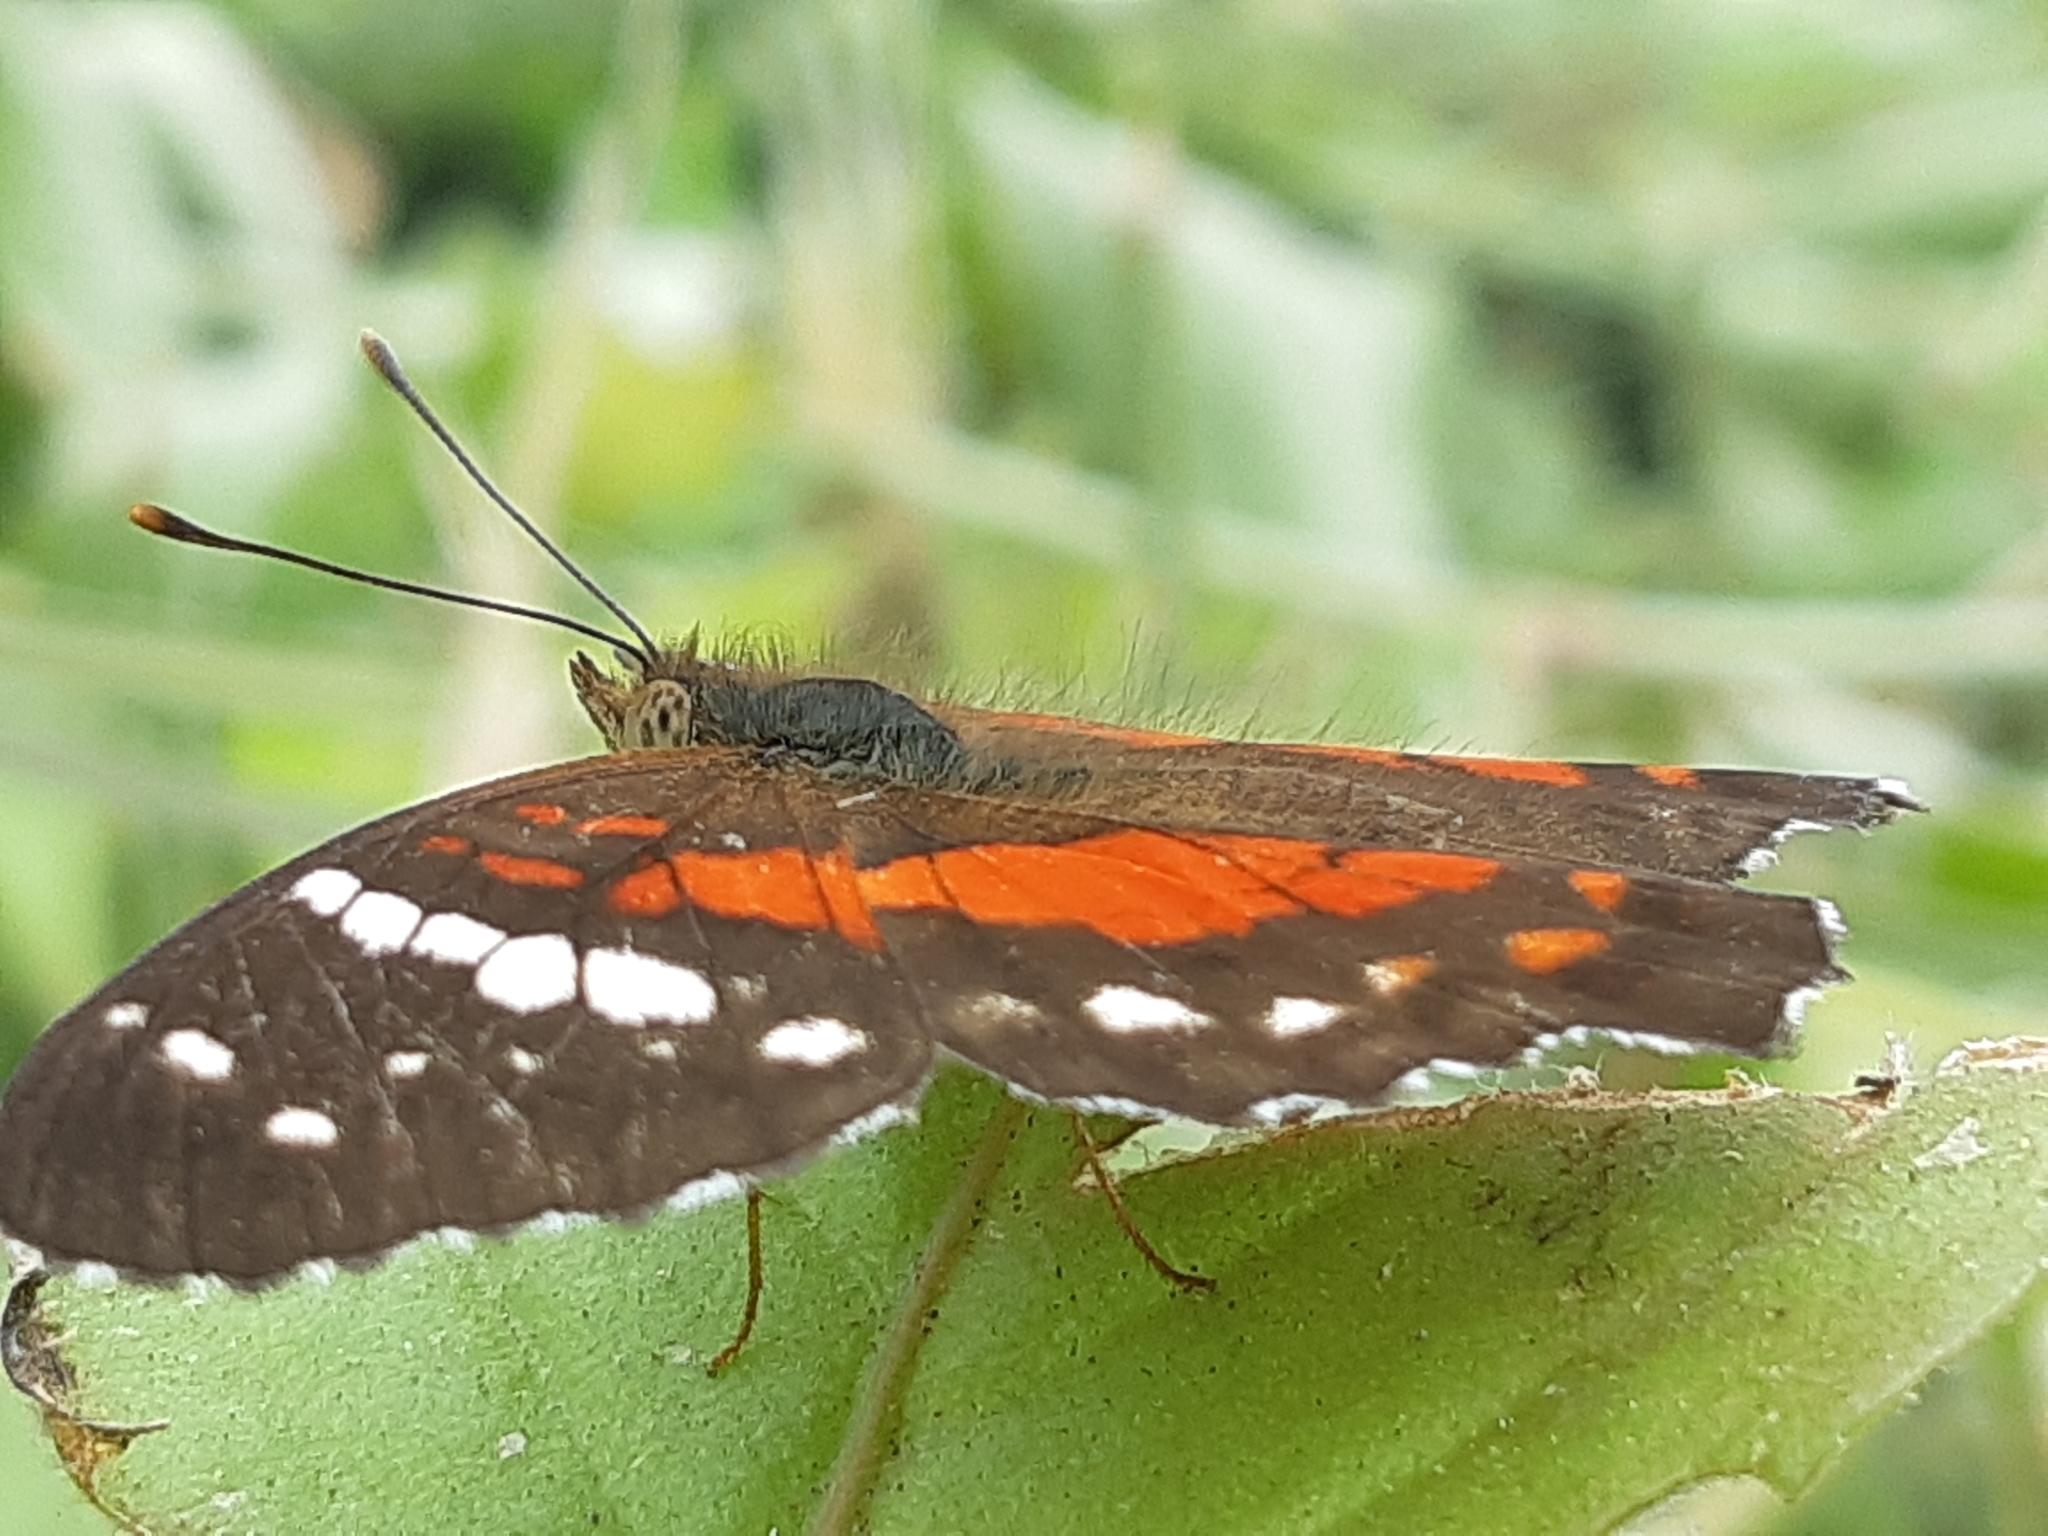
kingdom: Animalia
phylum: Arthropoda
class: Insecta
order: Lepidoptera
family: Nymphalidae
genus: Anartia
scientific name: Anartia amathea
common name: Red peacock
